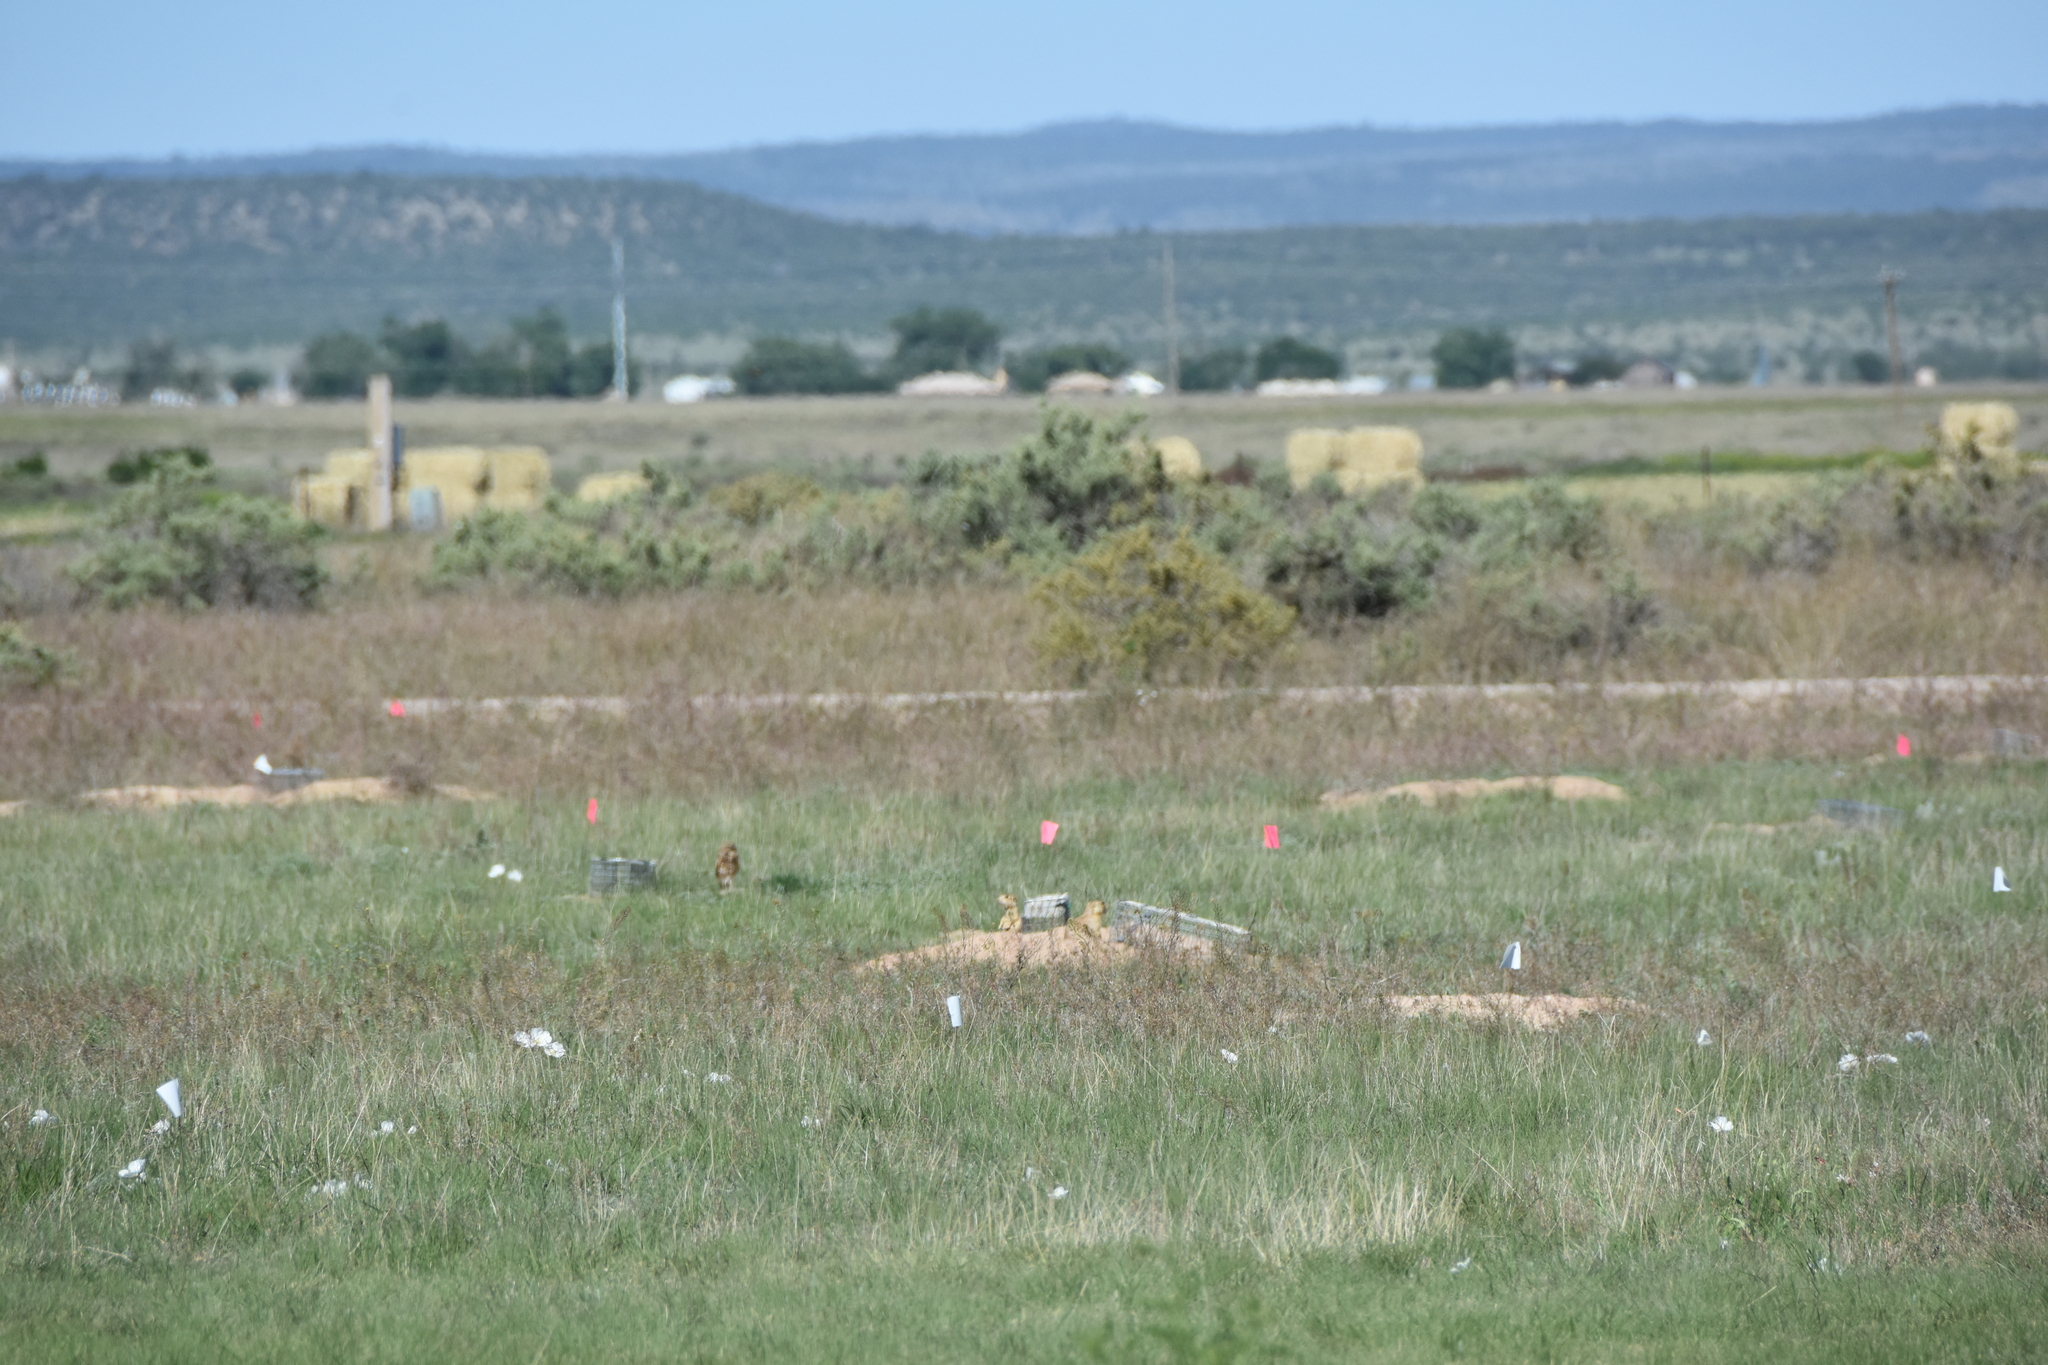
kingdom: Animalia
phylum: Chordata
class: Mammalia
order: Rodentia
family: Sciuridae
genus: Cynomys
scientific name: Cynomys gunnisoni
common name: Gunnison's prairie dog
